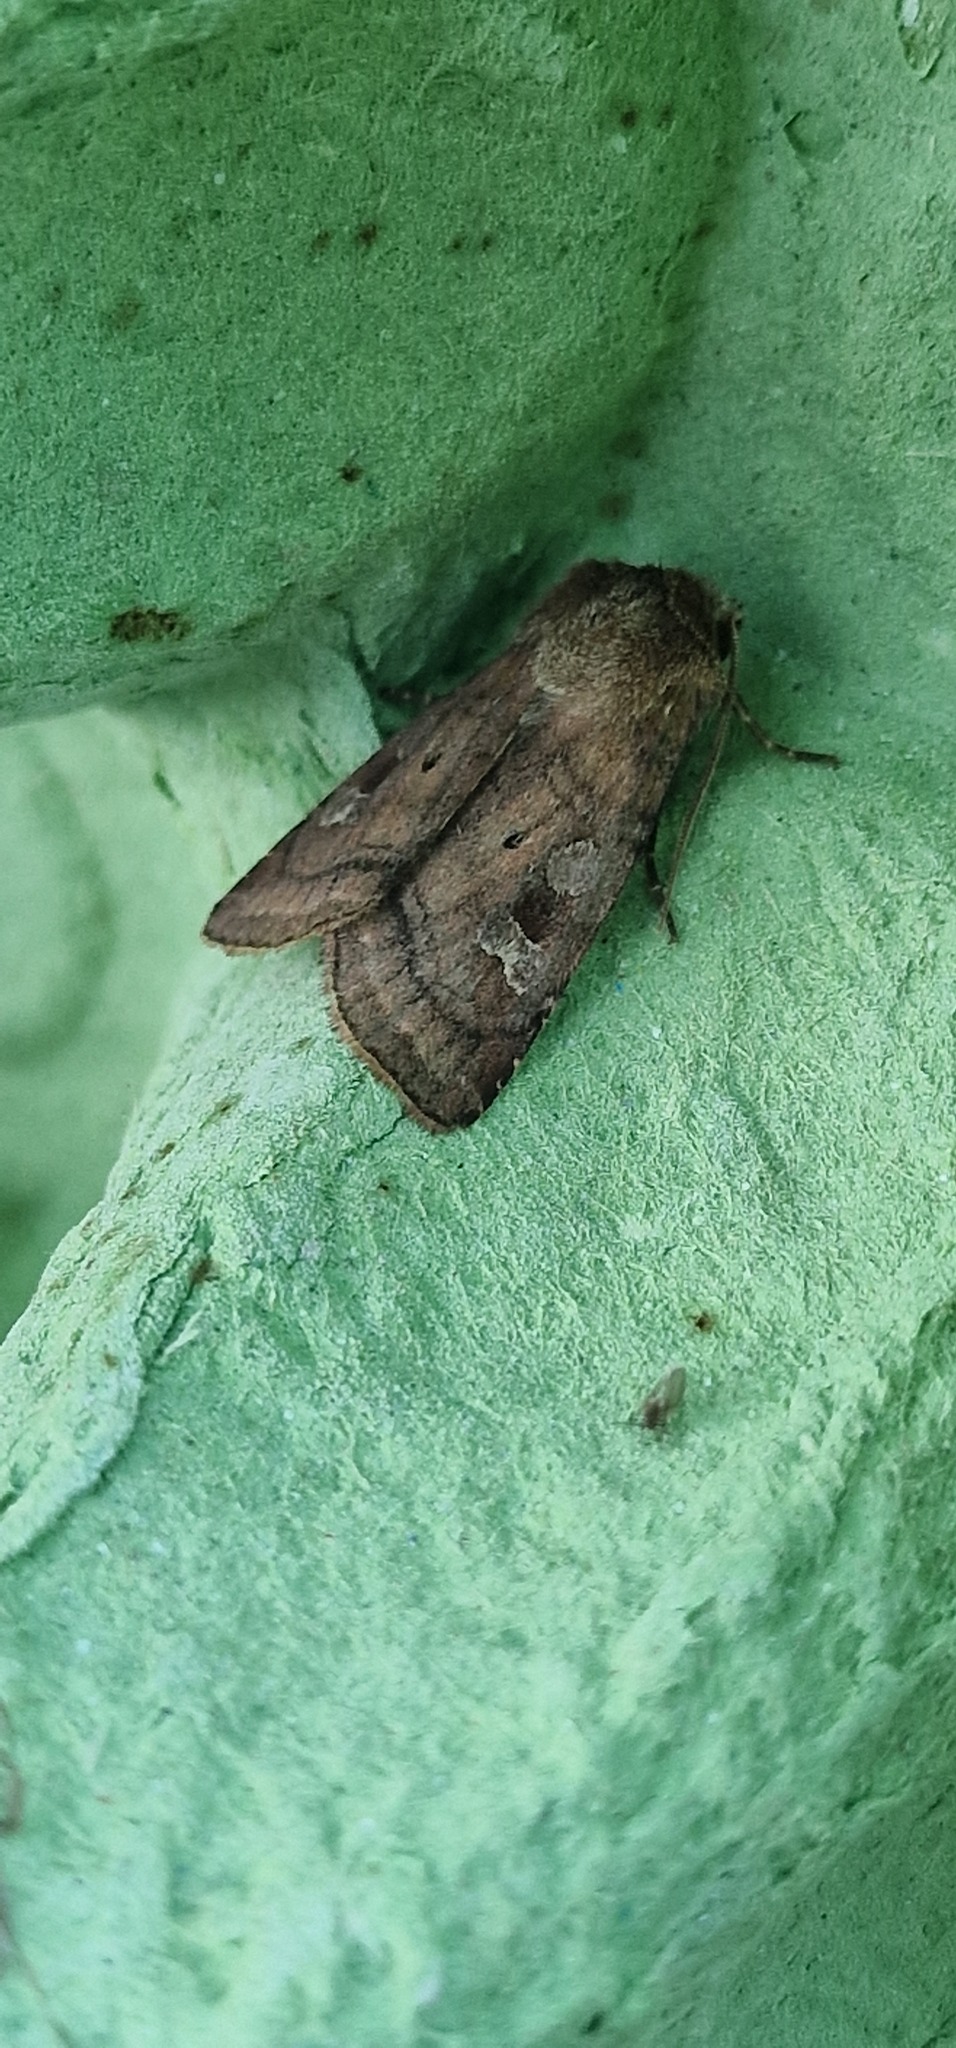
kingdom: Animalia
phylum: Arthropoda
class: Insecta
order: Lepidoptera
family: Noctuidae
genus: Diarsia
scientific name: Diarsia rubi
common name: Small square-spot
